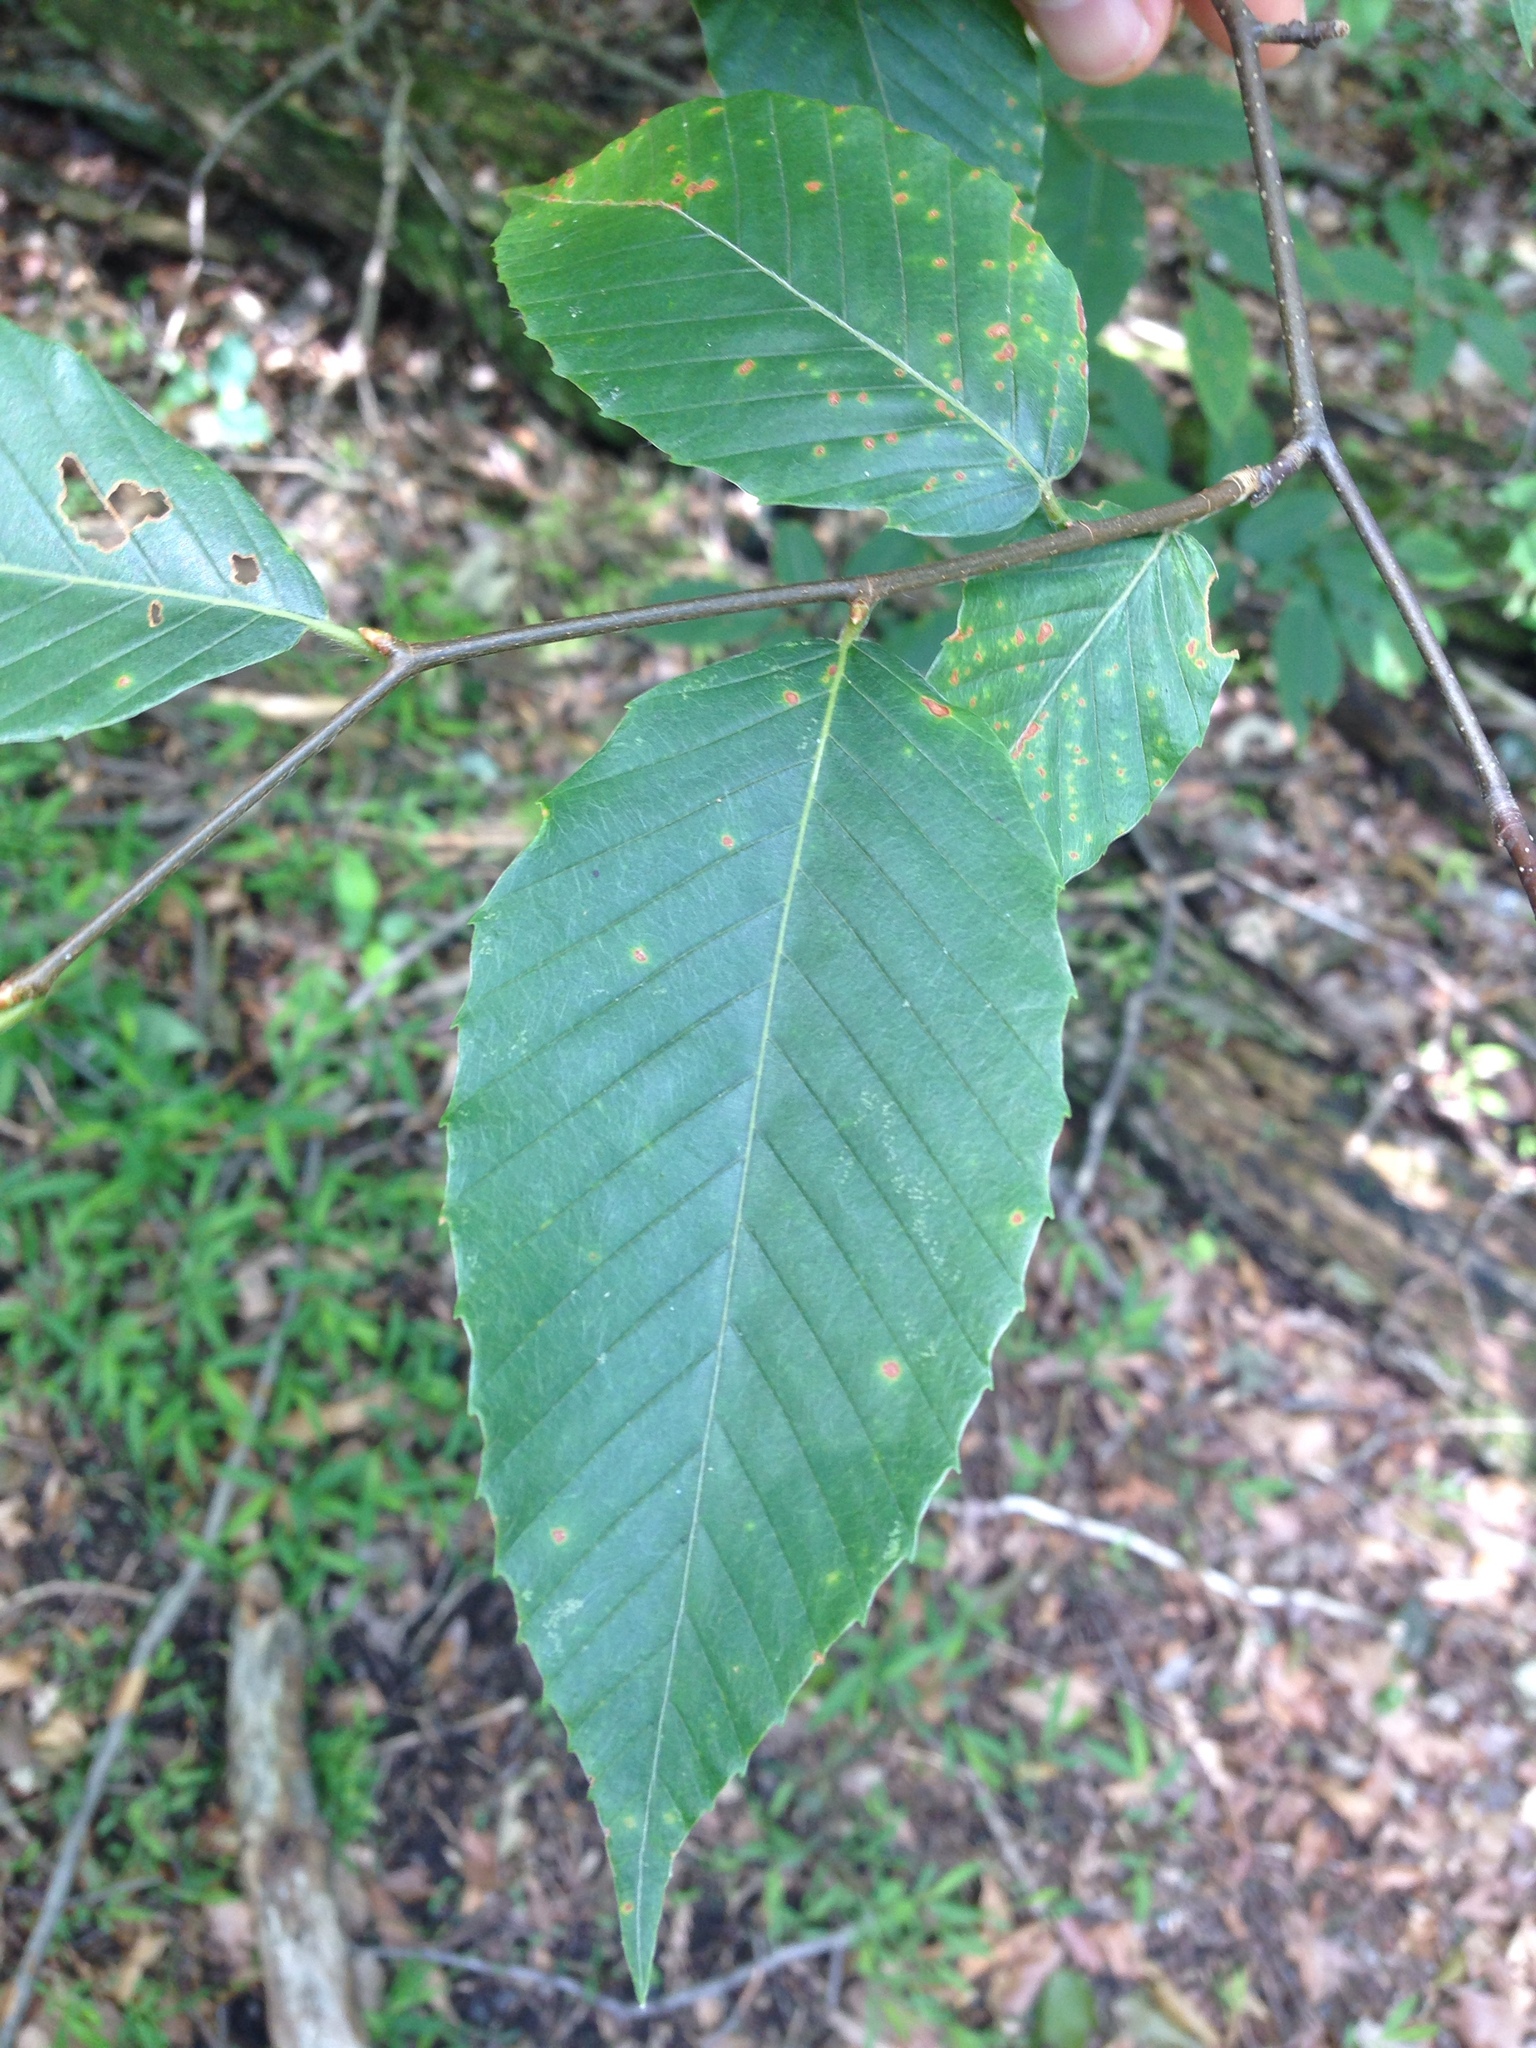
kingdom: Plantae
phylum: Tracheophyta
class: Magnoliopsida
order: Fagales
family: Fagaceae
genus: Fagus
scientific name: Fagus grandifolia
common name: American beech
